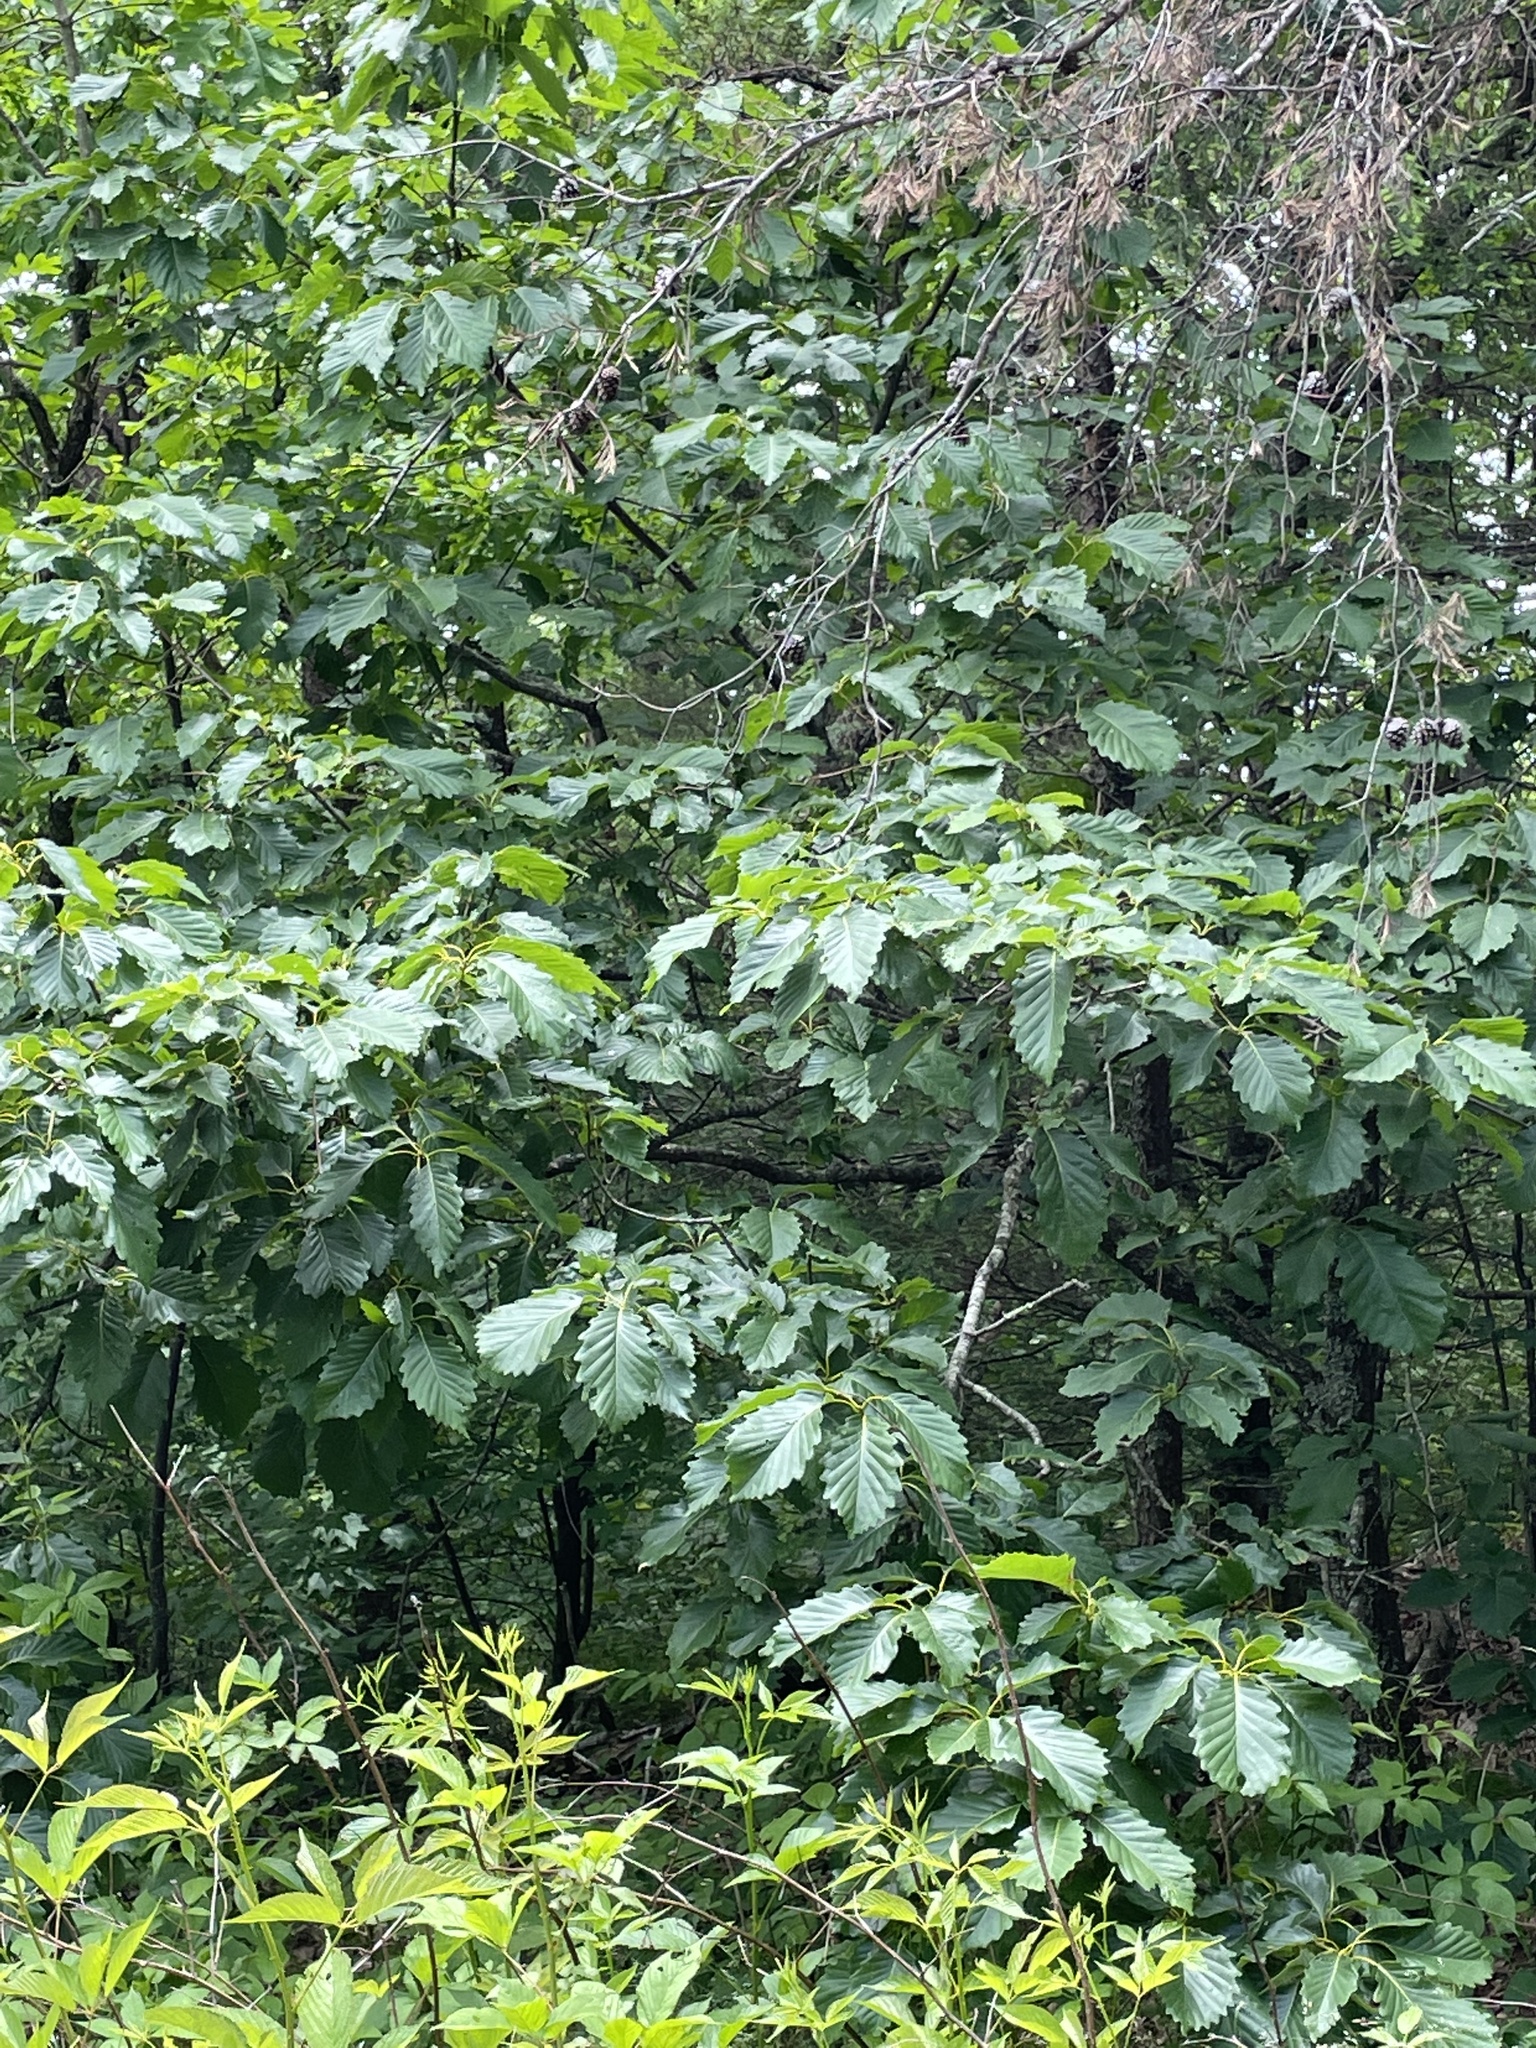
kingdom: Plantae
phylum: Tracheophyta
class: Magnoliopsida
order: Fagales
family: Fagaceae
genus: Quercus
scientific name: Quercus montana
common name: Chestnut oak
